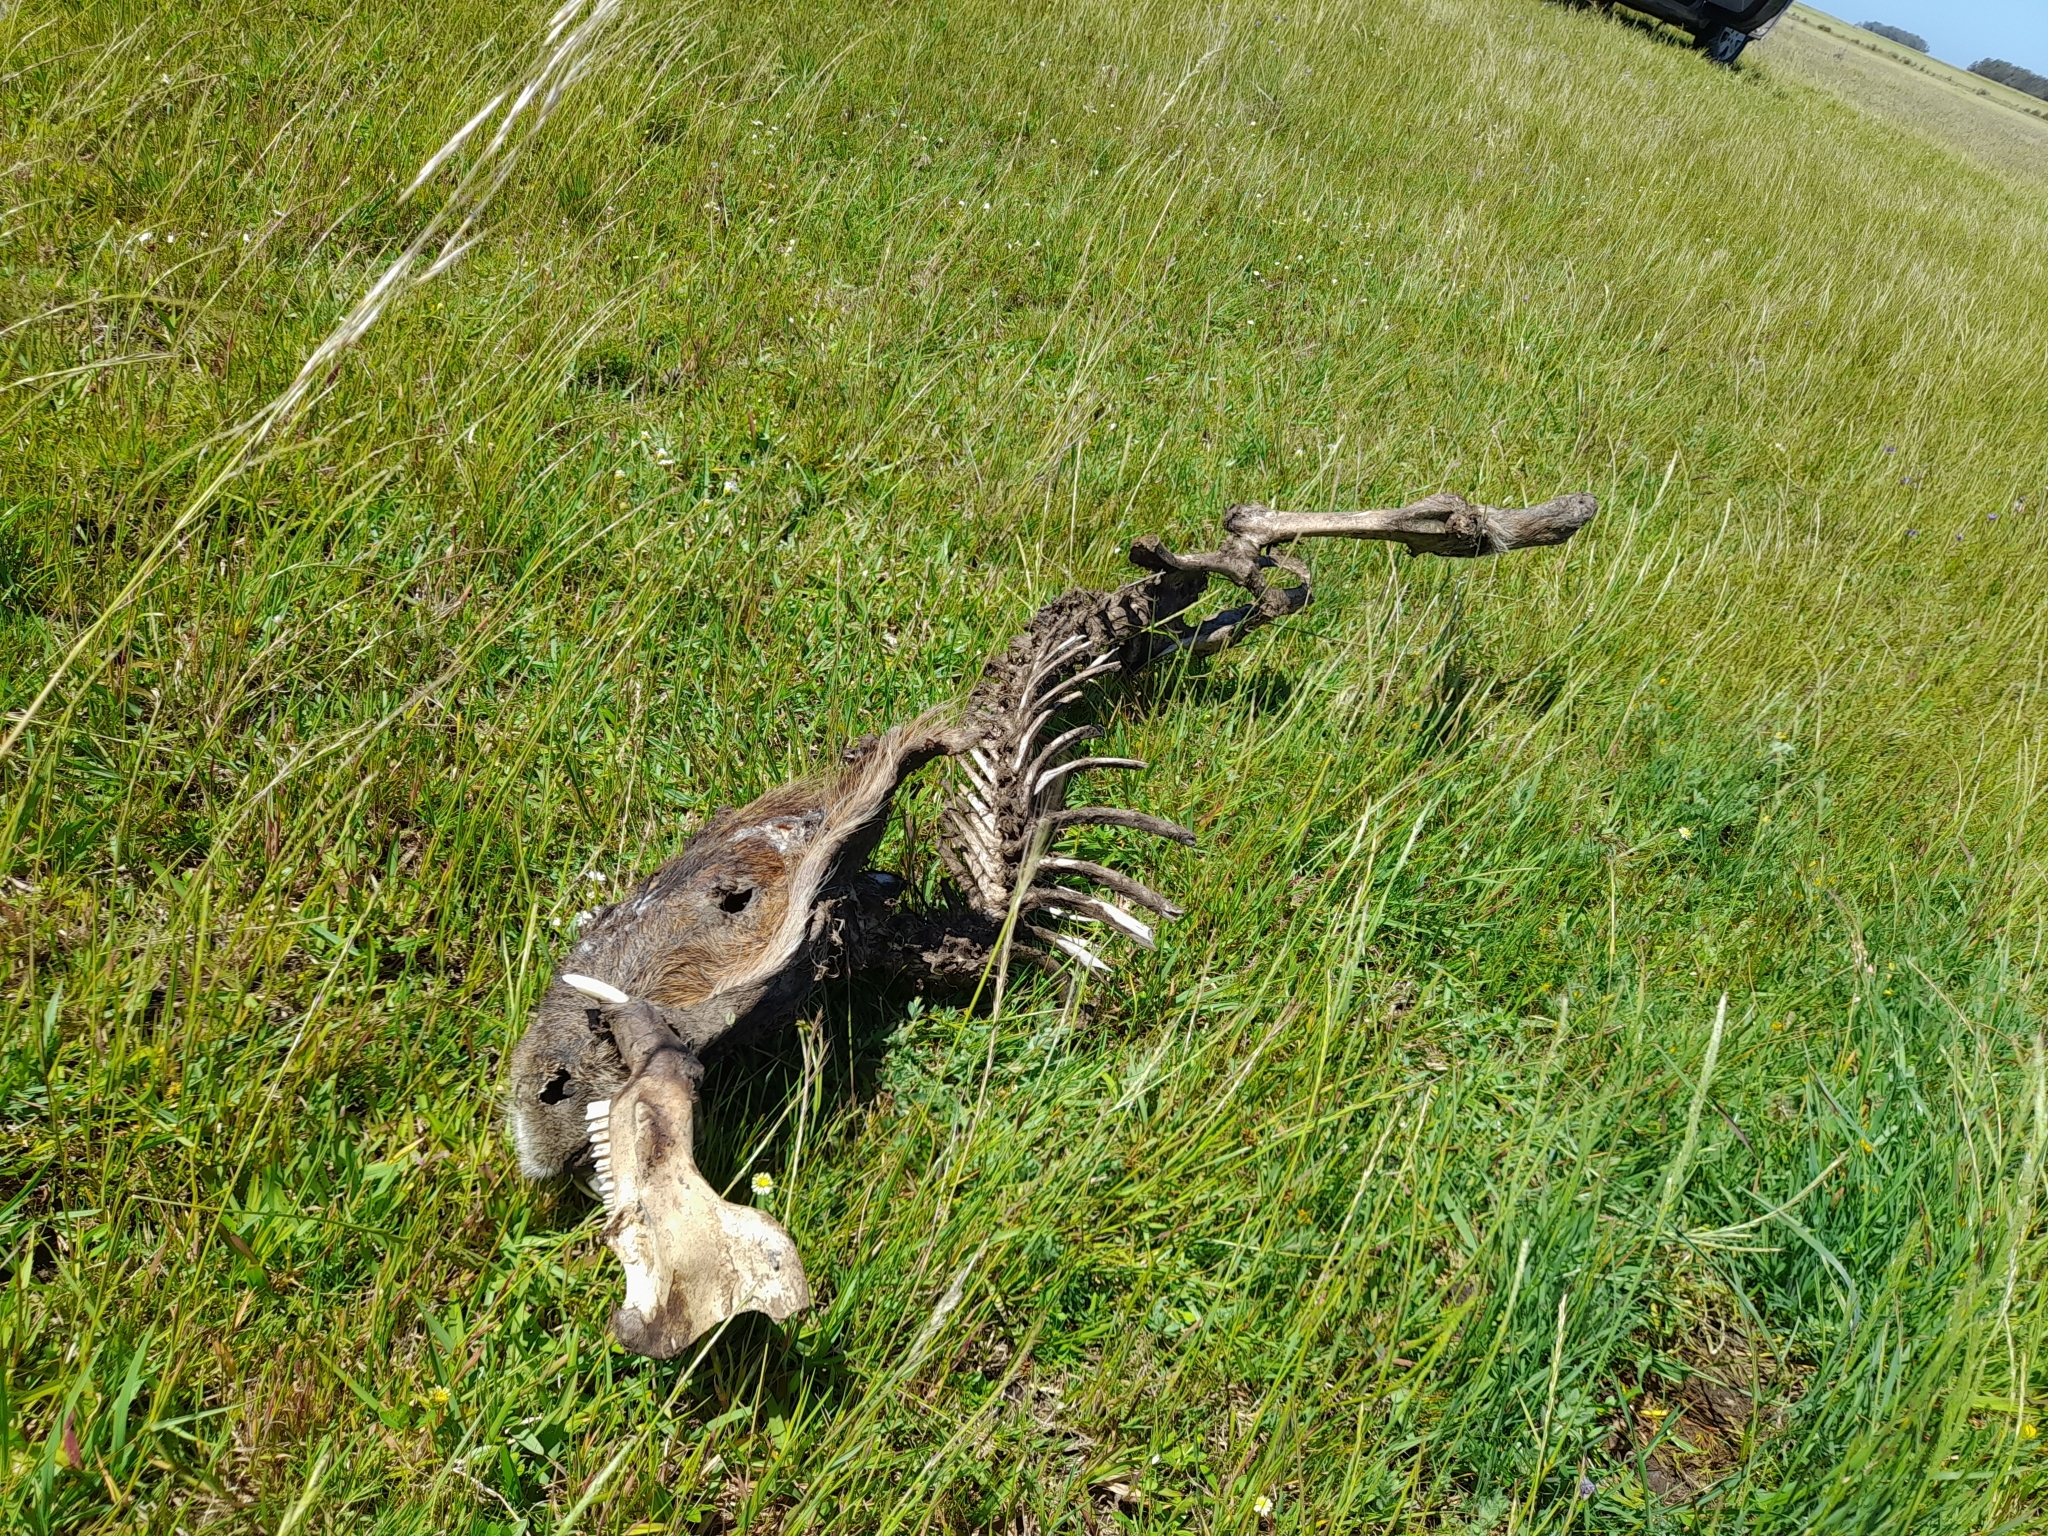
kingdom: Animalia
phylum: Chordata
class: Mammalia
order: Rodentia
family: Caviidae
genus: Hydrochoerus
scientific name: Hydrochoerus hydrochaeris
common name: Capybara
